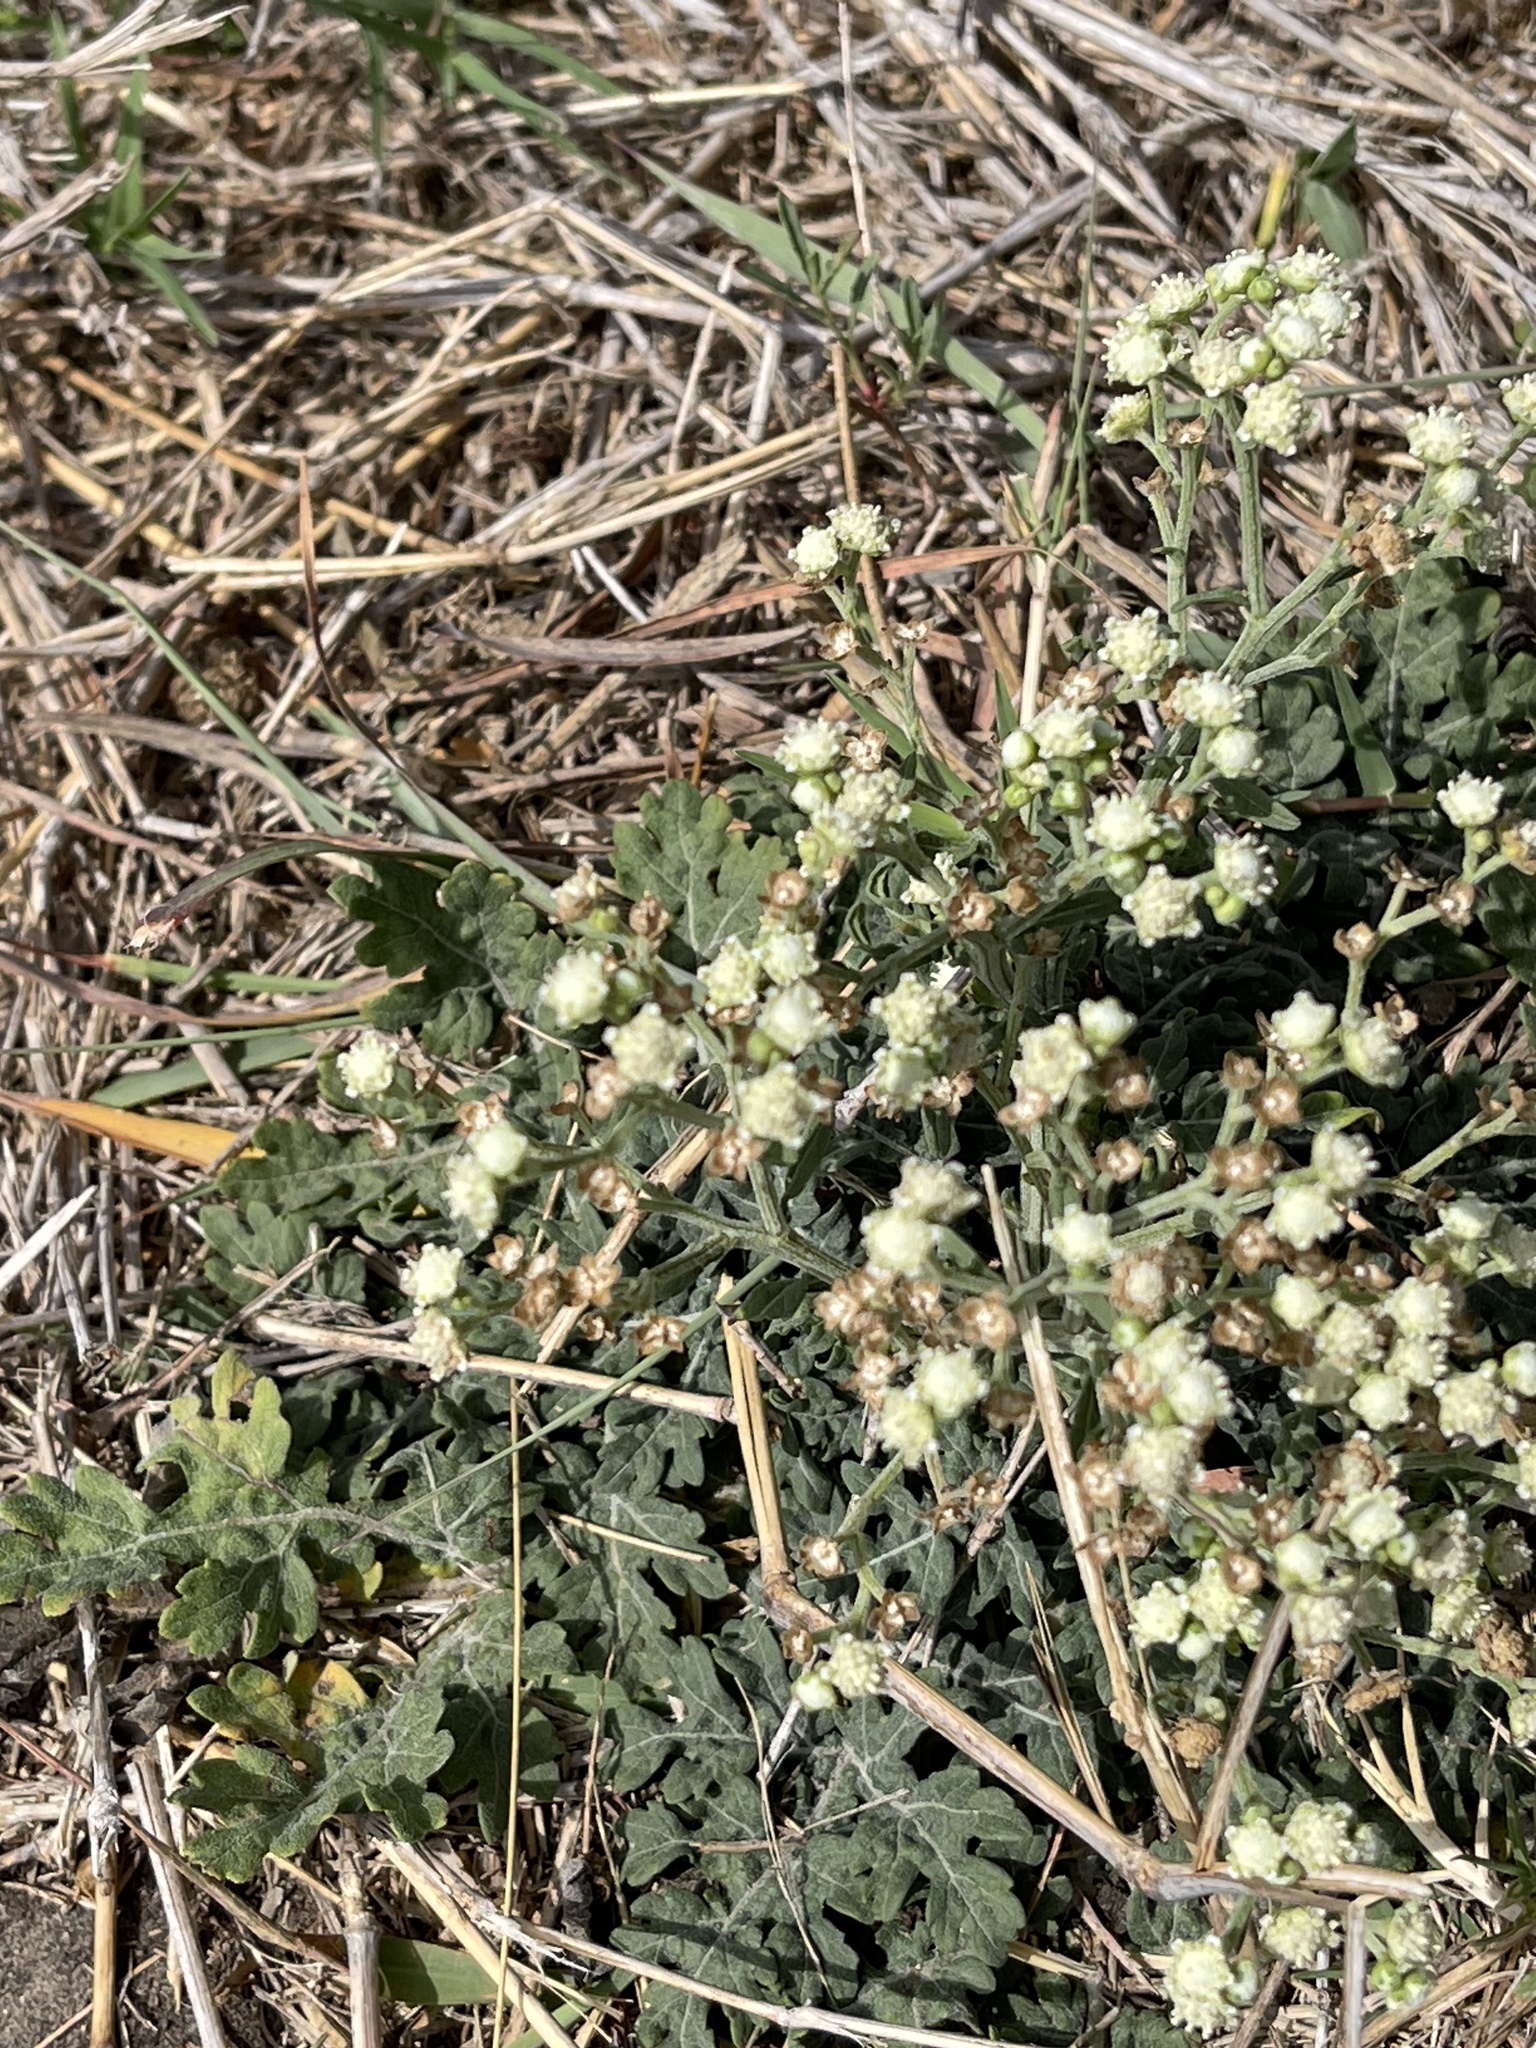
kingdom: Plantae
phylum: Tracheophyta
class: Magnoliopsida
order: Asterales
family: Asteraceae
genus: Parthenium
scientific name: Parthenium hysterophorus
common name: Santa maria feverfew
